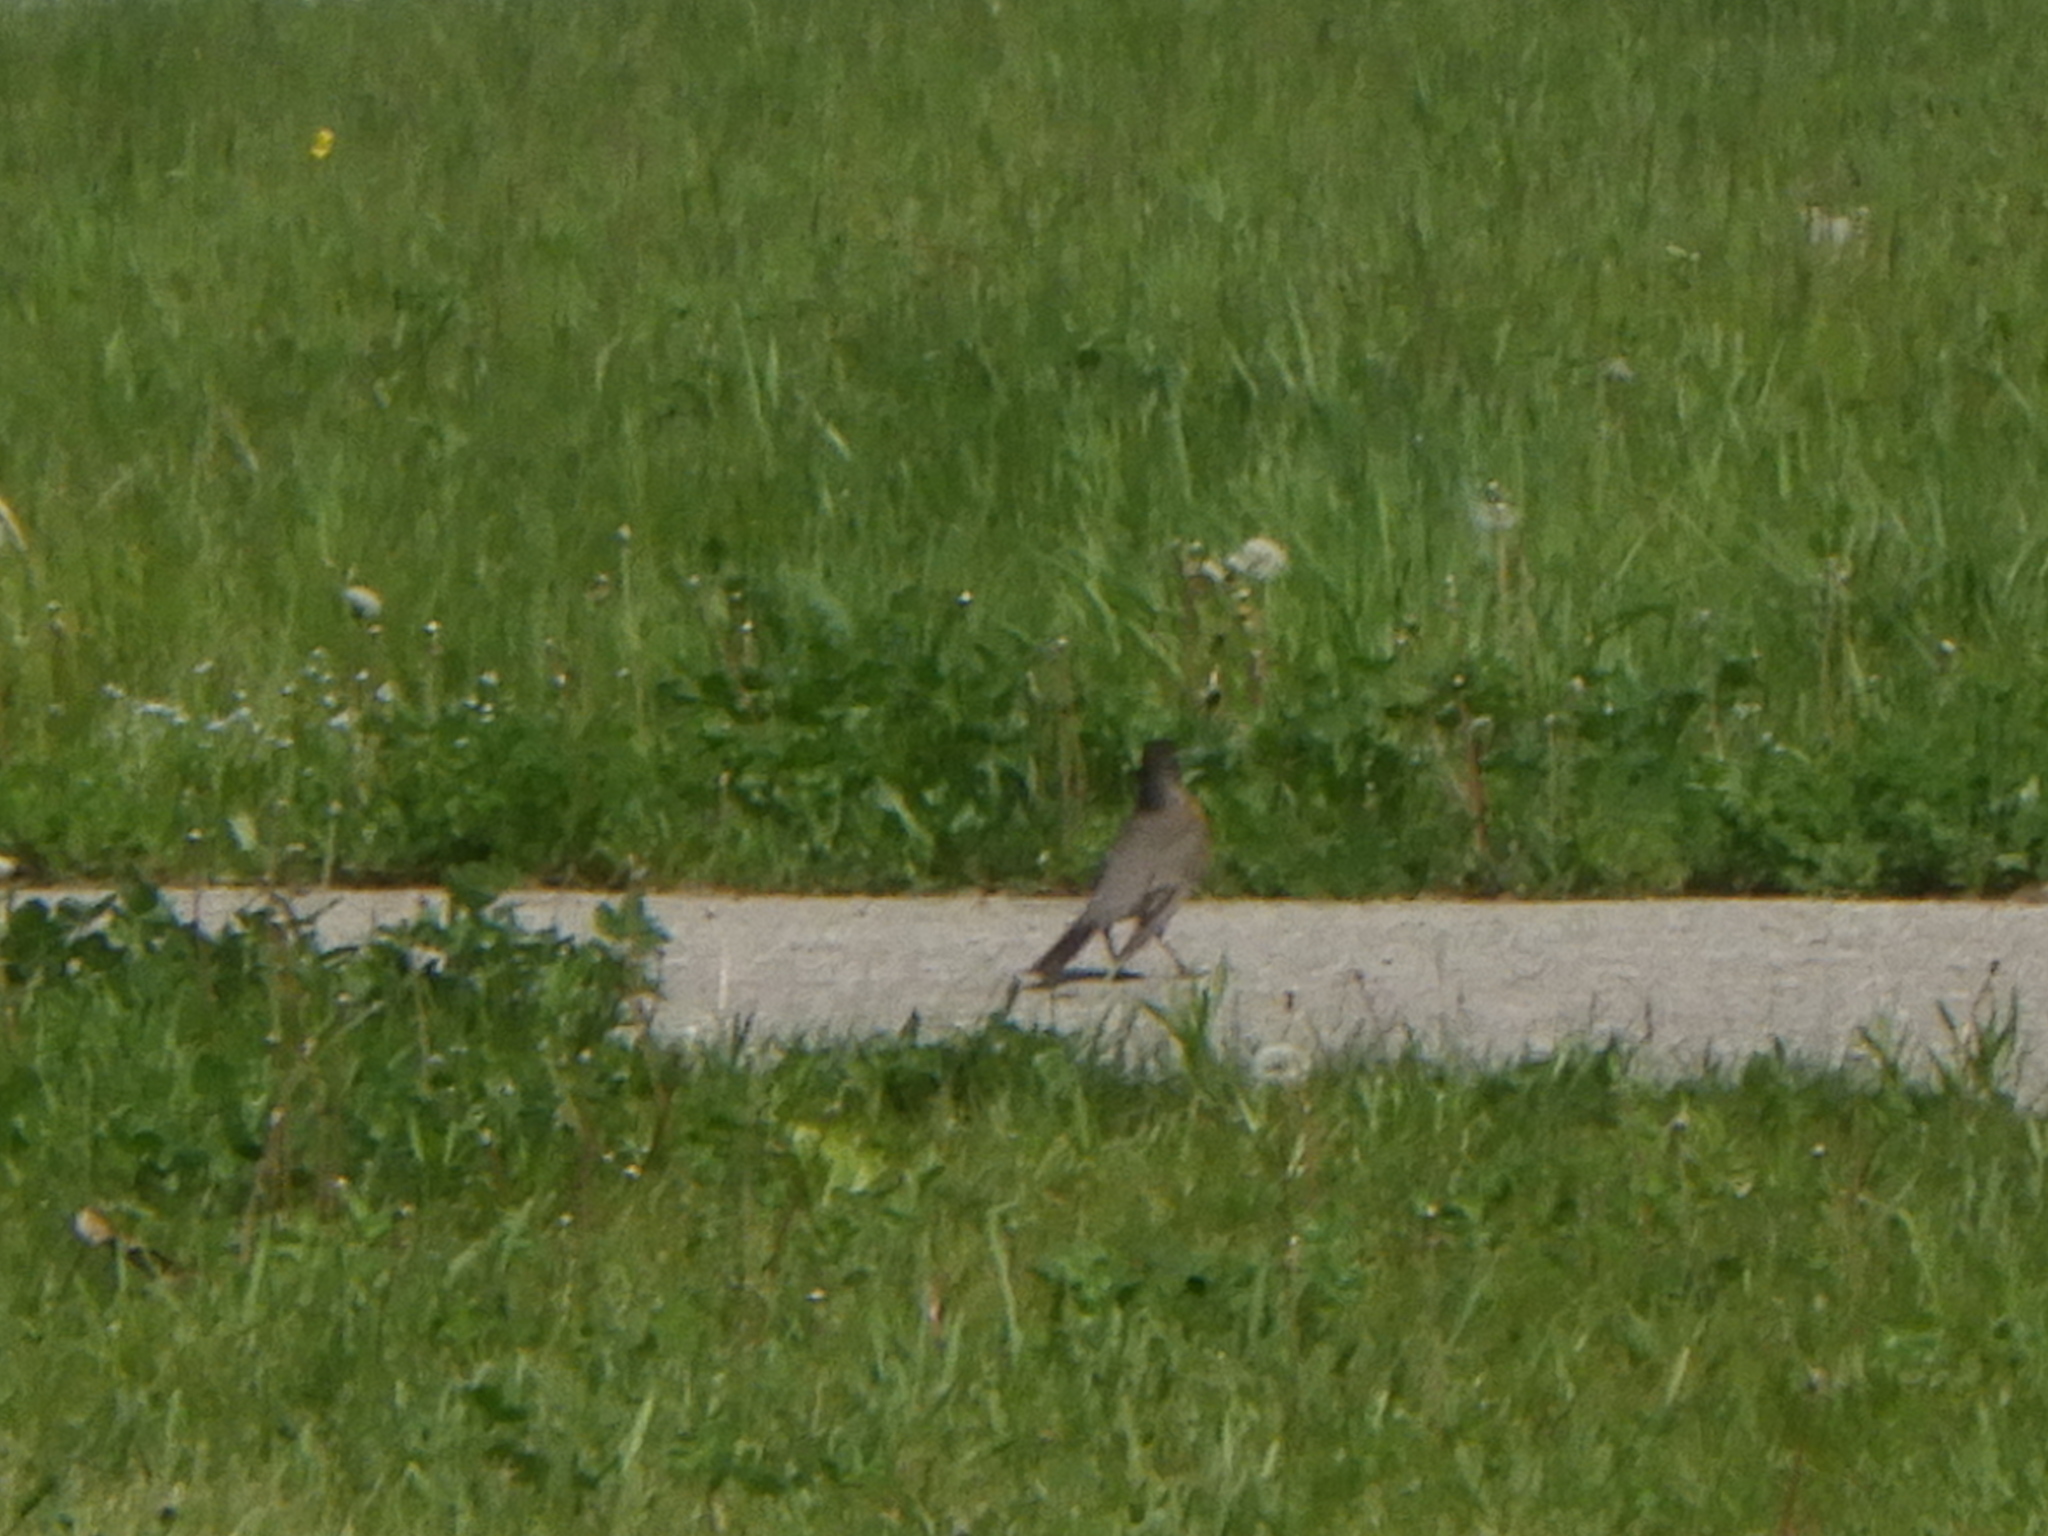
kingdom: Animalia
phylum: Chordata
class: Aves
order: Passeriformes
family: Turdidae
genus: Turdus
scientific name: Turdus migratorius
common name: American robin
